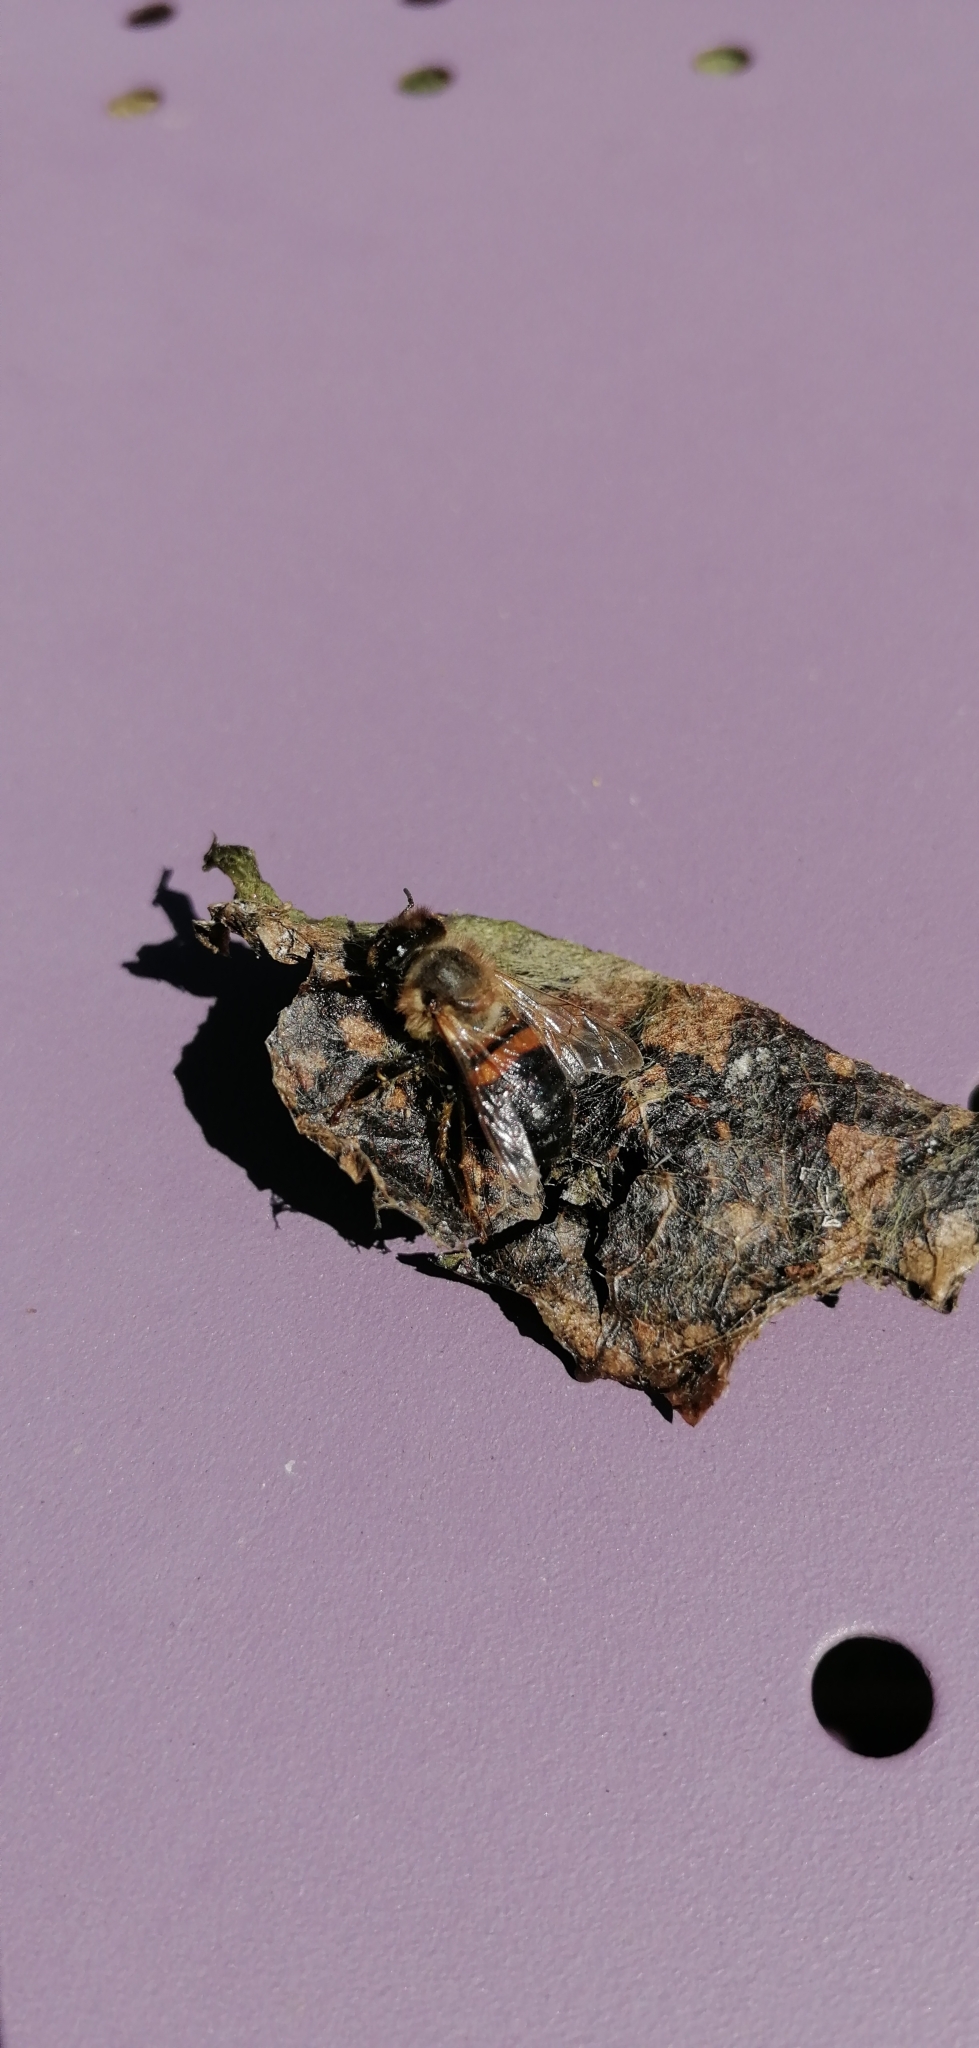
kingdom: Animalia
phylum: Arthropoda
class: Insecta
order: Hymenoptera
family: Apidae
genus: Apis
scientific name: Apis mellifera
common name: Honey bee
